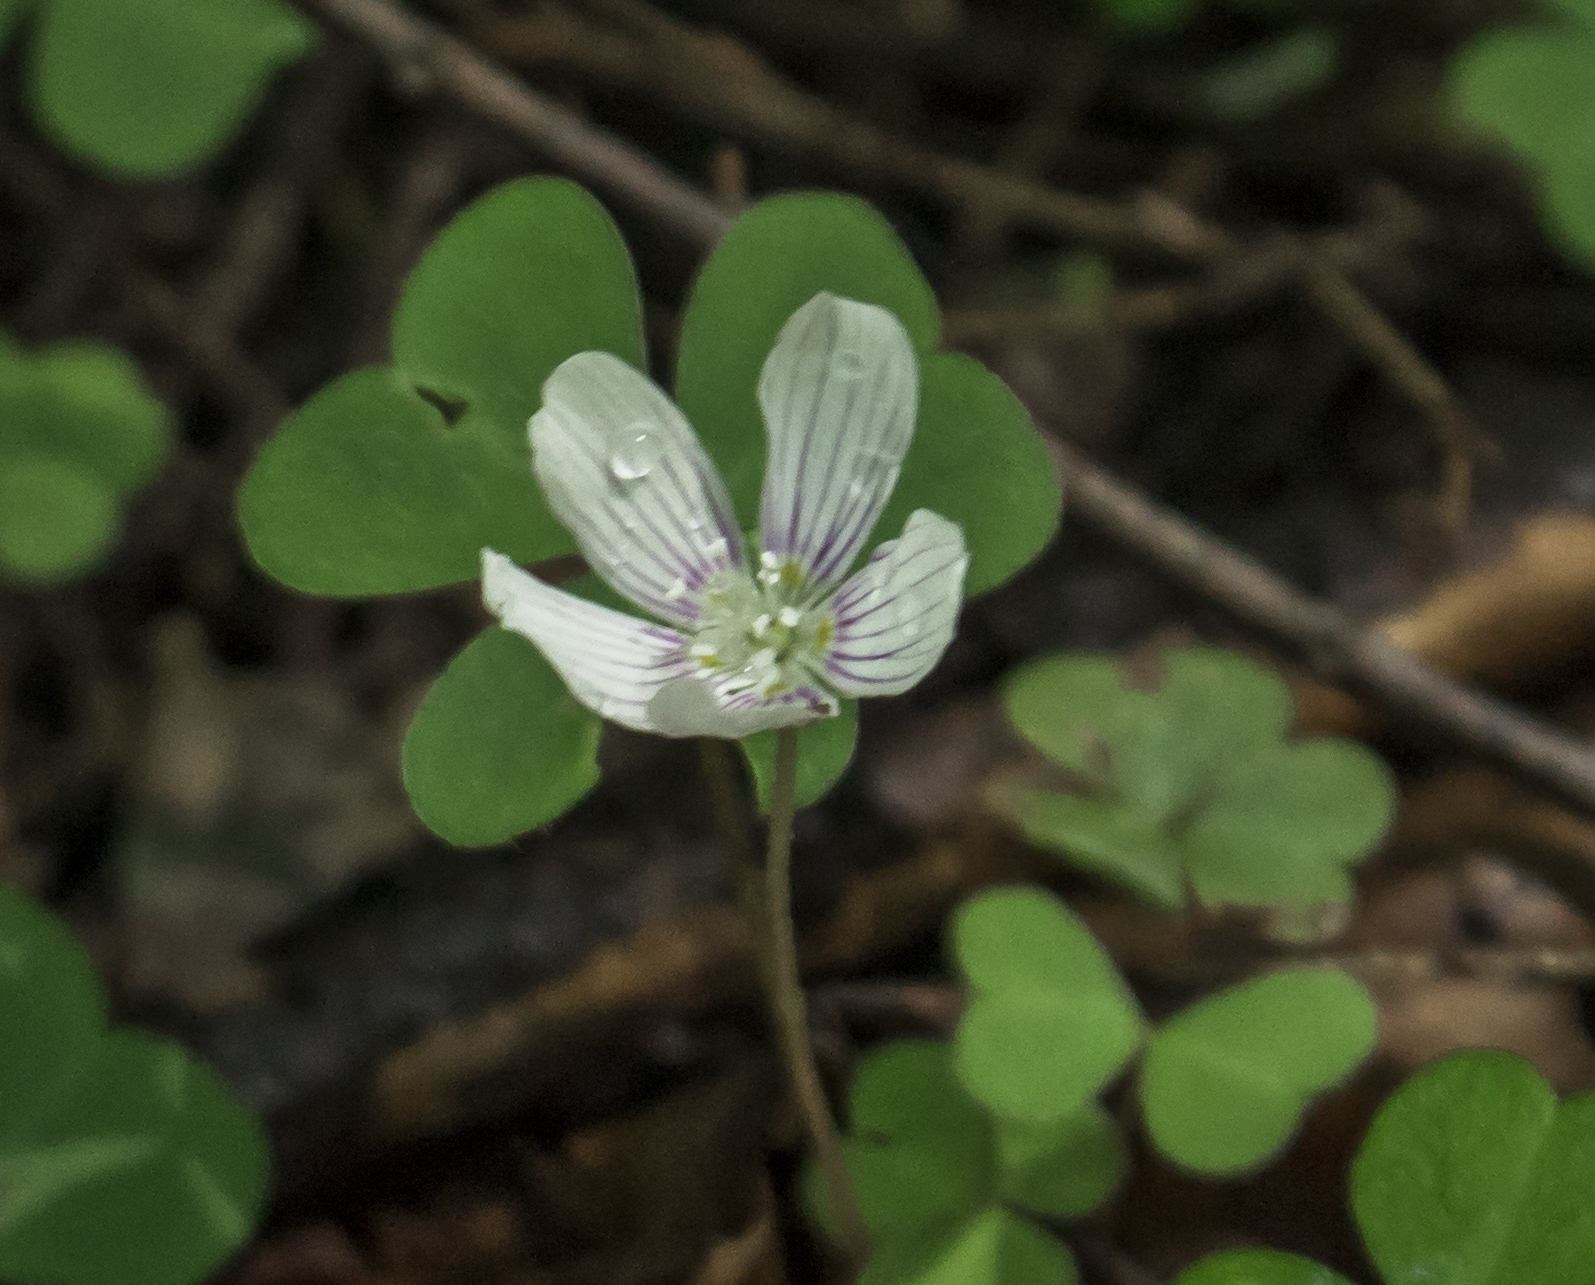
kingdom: Plantae
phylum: Tracheophyta
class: Magnoliopsida
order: Oxalidales
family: Oxalidaceae
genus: Oxalis
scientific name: Oxalis montana
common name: American wood-sorrel
